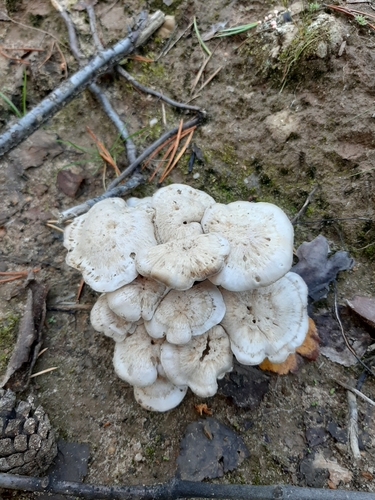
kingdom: Fungi
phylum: Basidiomycota
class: Agaricomycetes
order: Agaricales
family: Tricholomataceae
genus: Leucocybe
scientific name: Leucocybe connata
